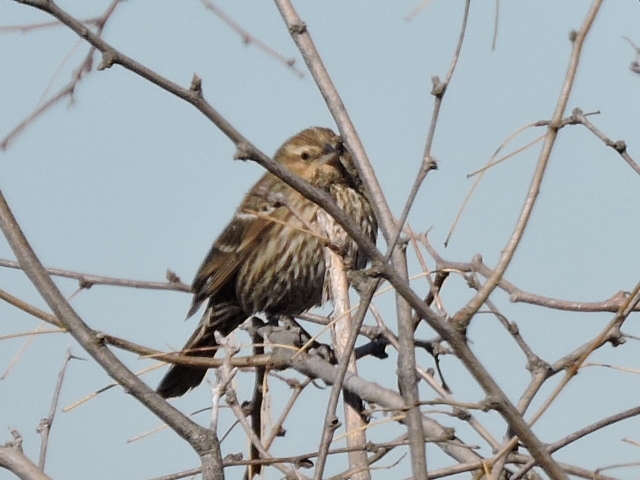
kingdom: Animalia
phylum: Chordata
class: Aves
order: Passeriformes
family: Icteridae
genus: Agelaius
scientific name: Agelaius phoeniceus
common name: Red-winged blackbird
